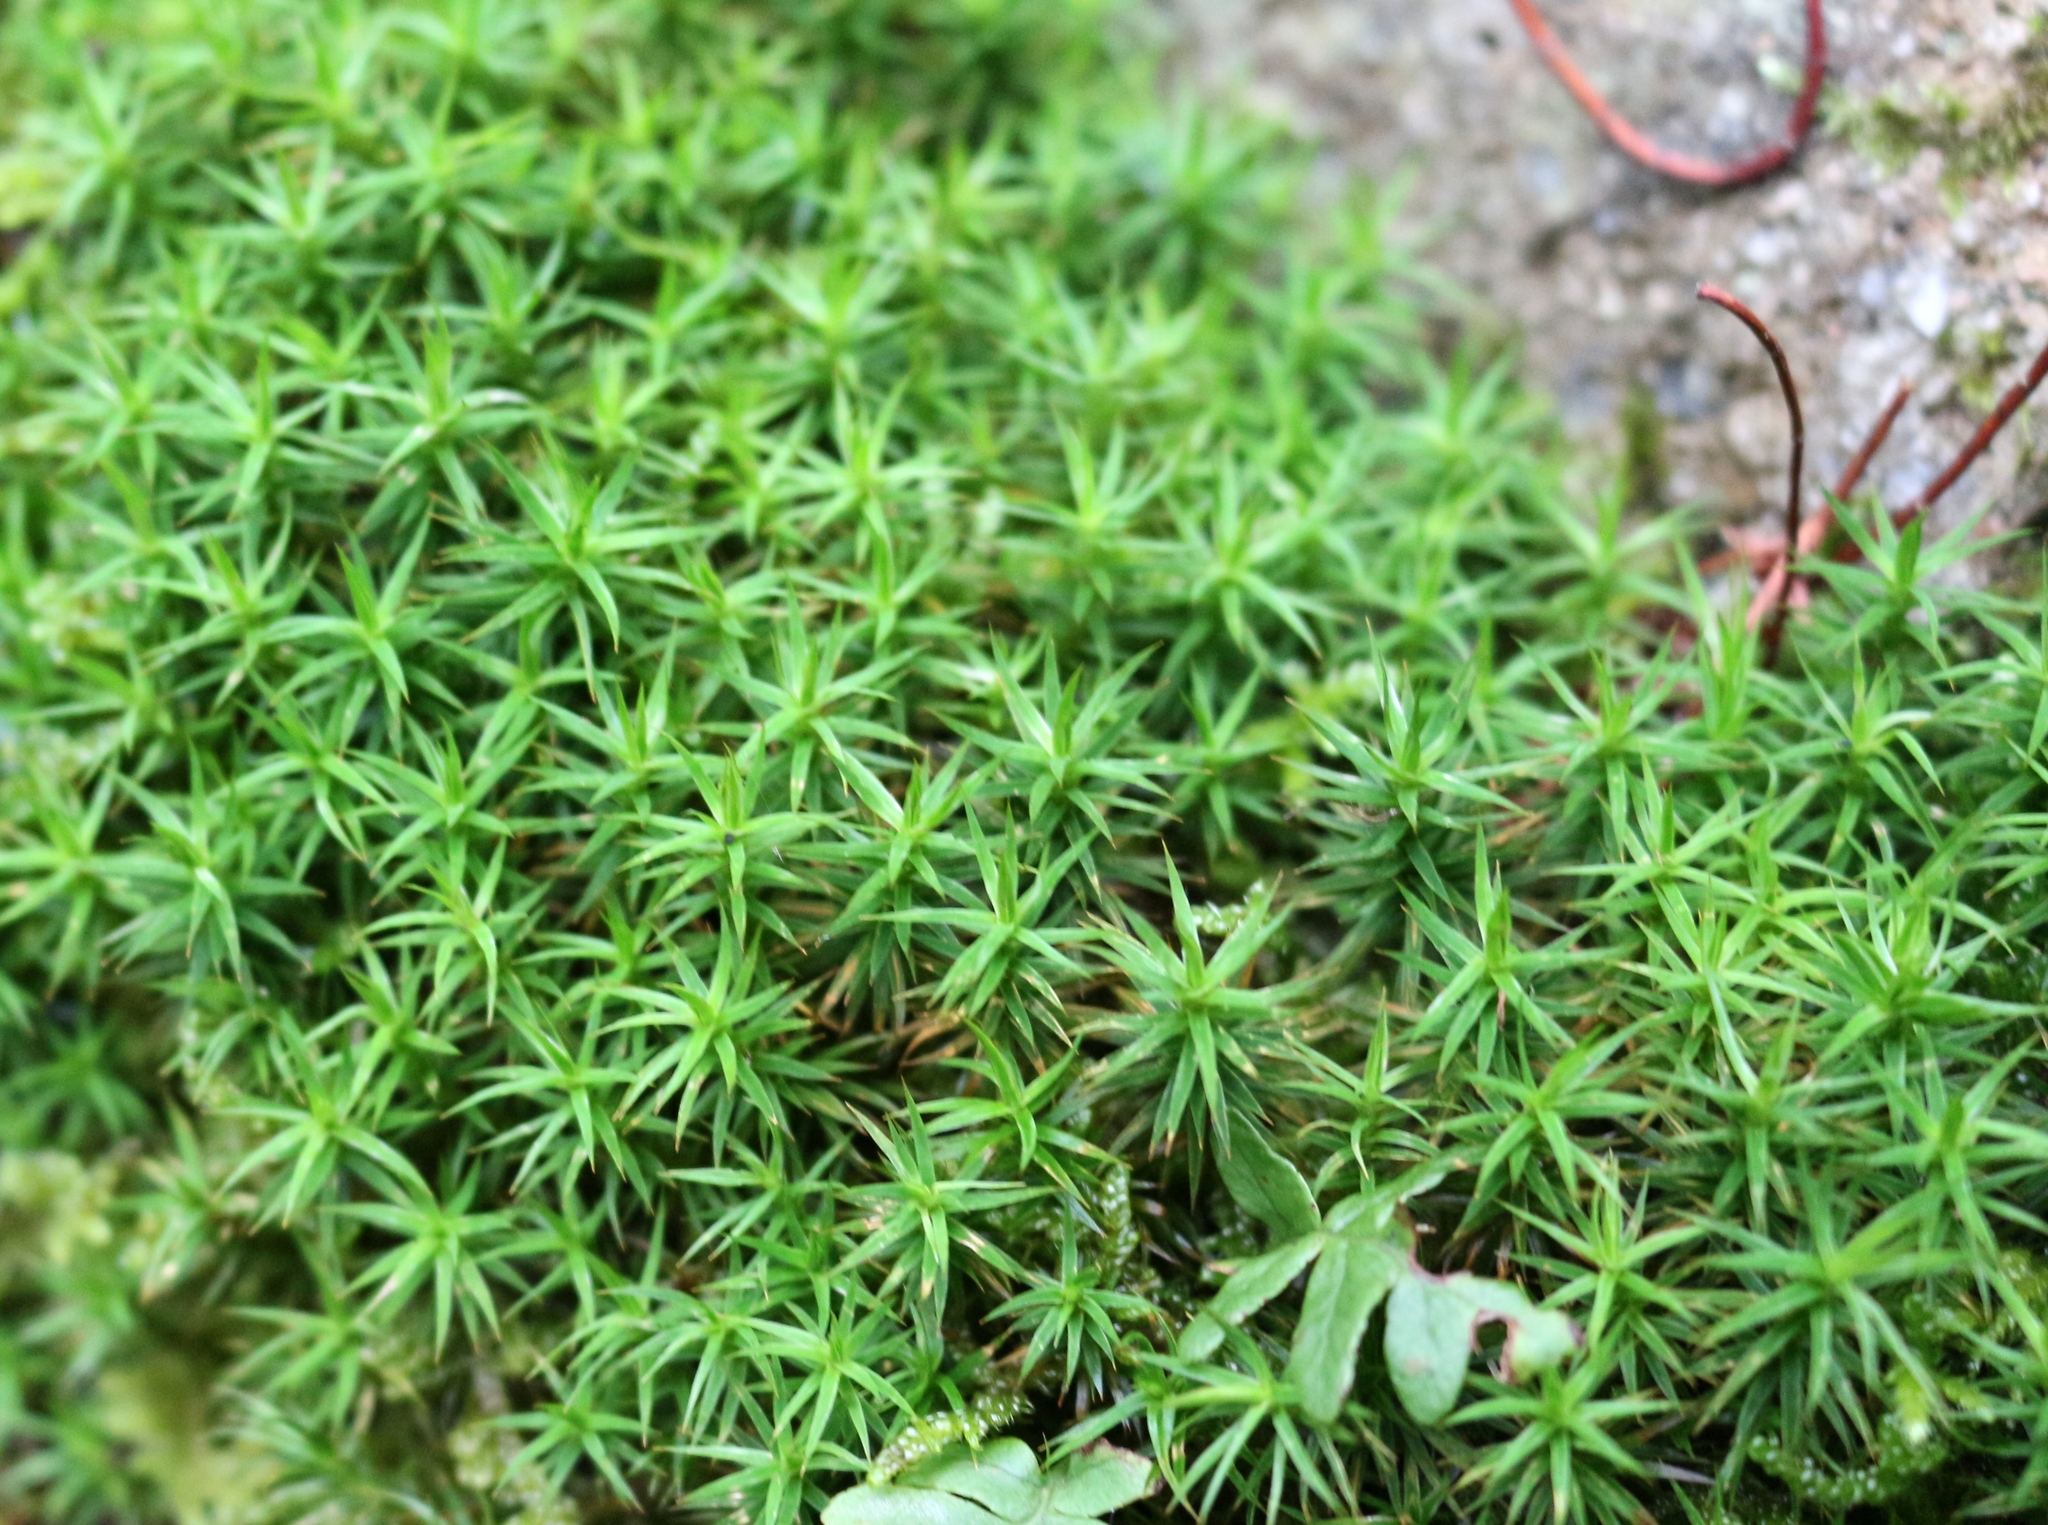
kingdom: Plantae
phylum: Bryophyta
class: Polytrichopsida
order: Polytrichales
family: Polytrichaceae
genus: Polytrichum
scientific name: Polytrichum formosum
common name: Bank haircap moss
